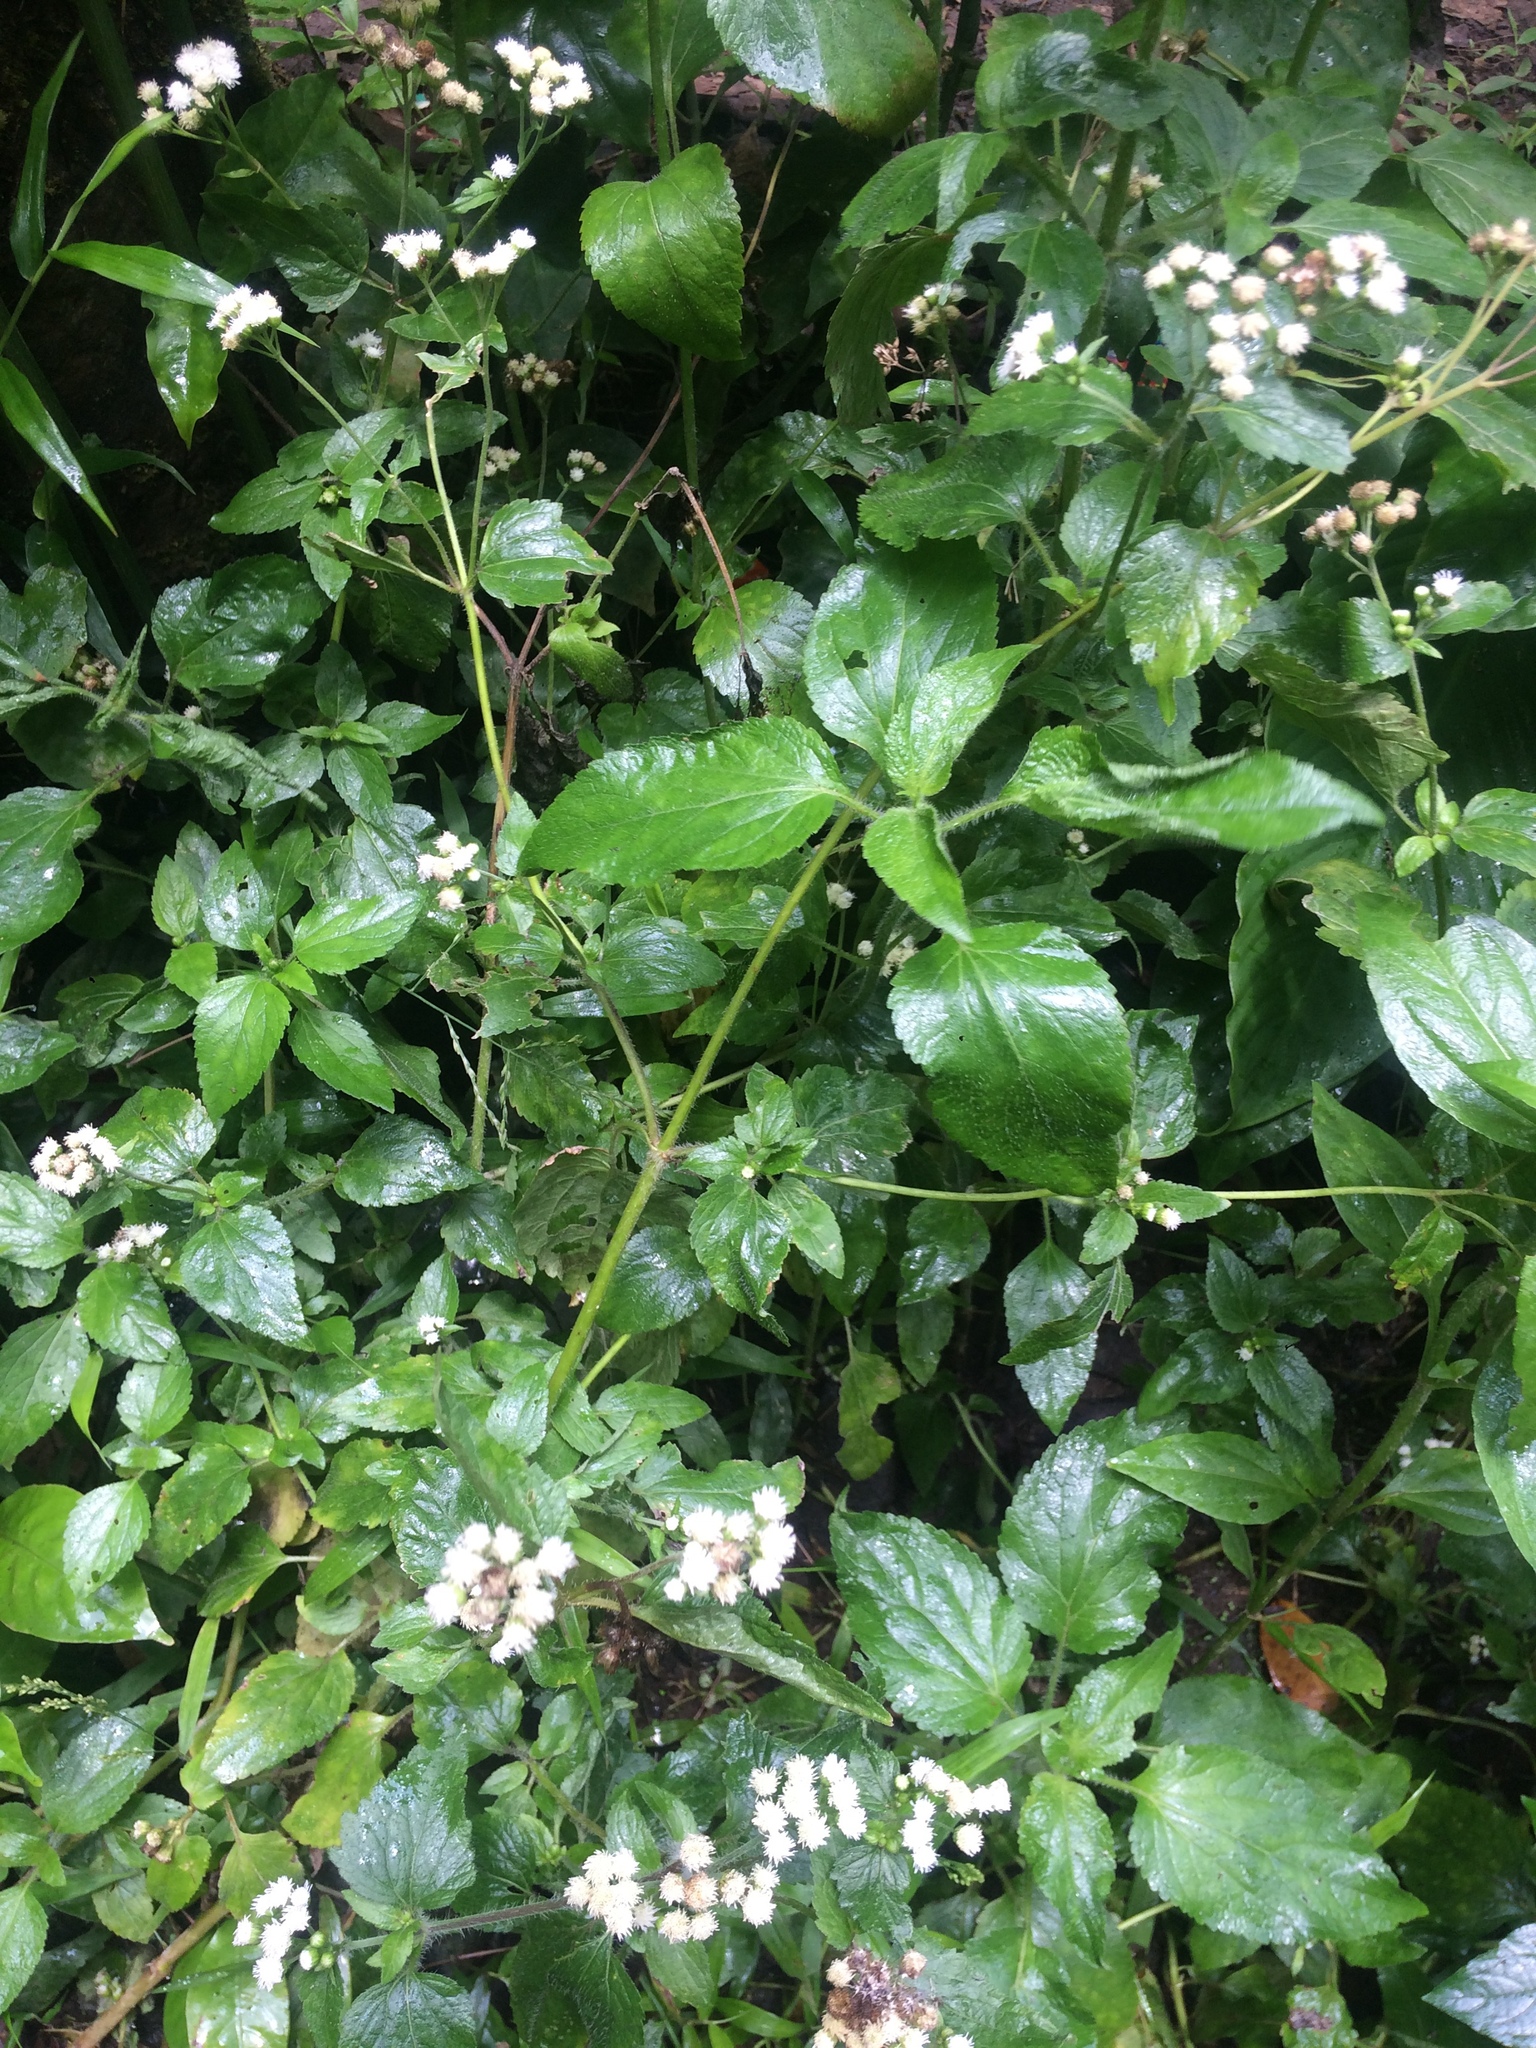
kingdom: Plantae
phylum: Tracheophyta
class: Magnoliopsida
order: Asterales
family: Asteraceae
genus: Ageratum
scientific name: Ageratum conyzoides
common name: Tropical whiteweed
